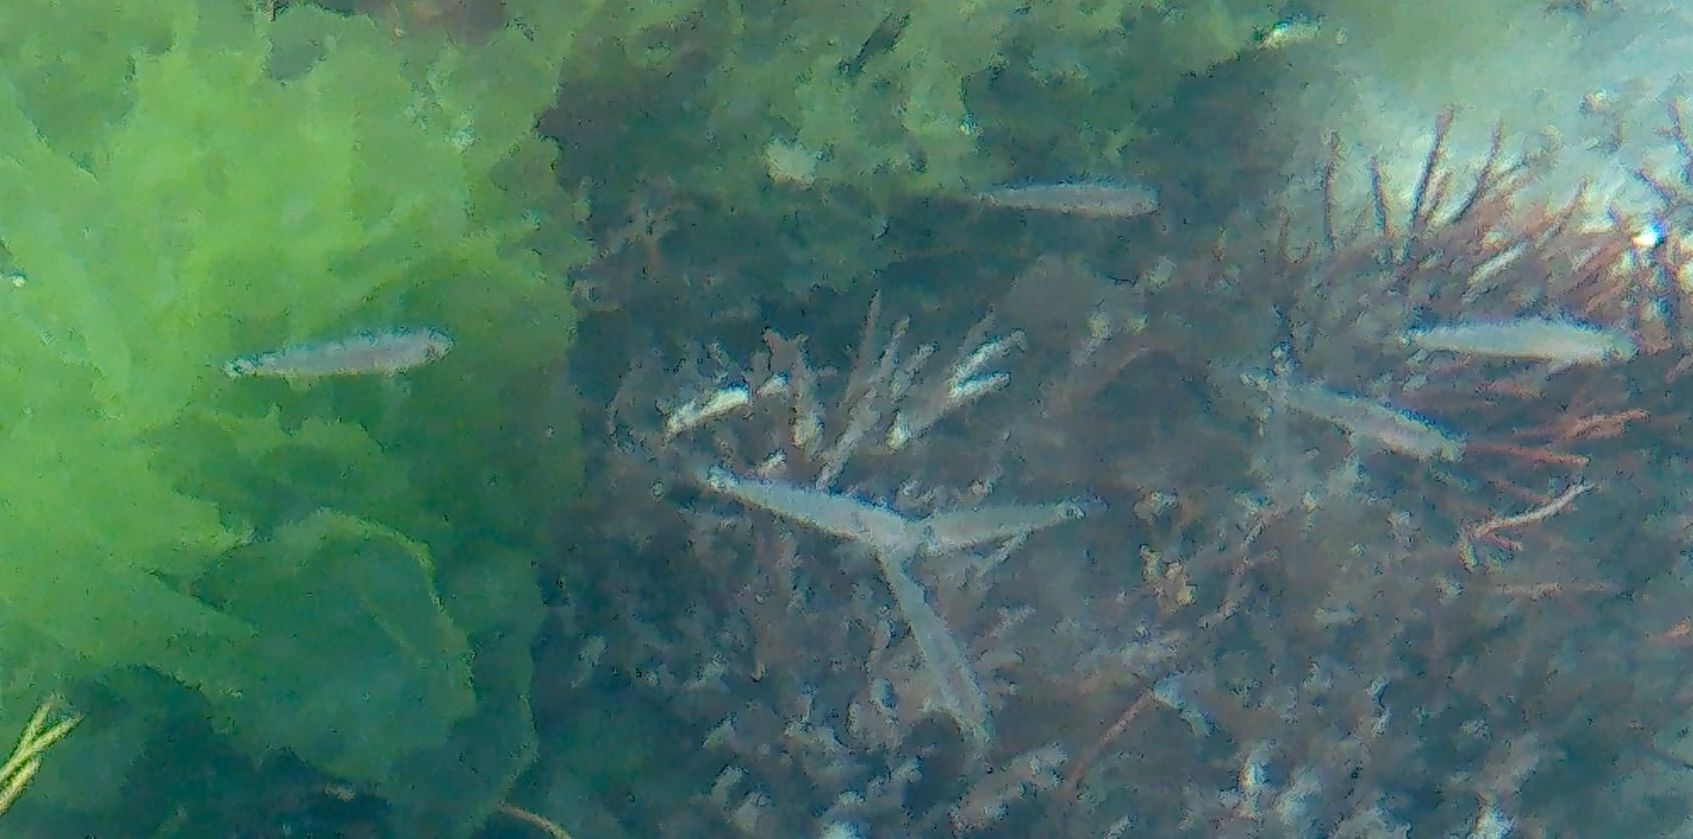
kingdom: Animalia
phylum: Chordata
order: Perciformes
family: Gobiidae
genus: Gobiusculus
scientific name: Gobiusculus flavescens
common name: Two-spotted goby
